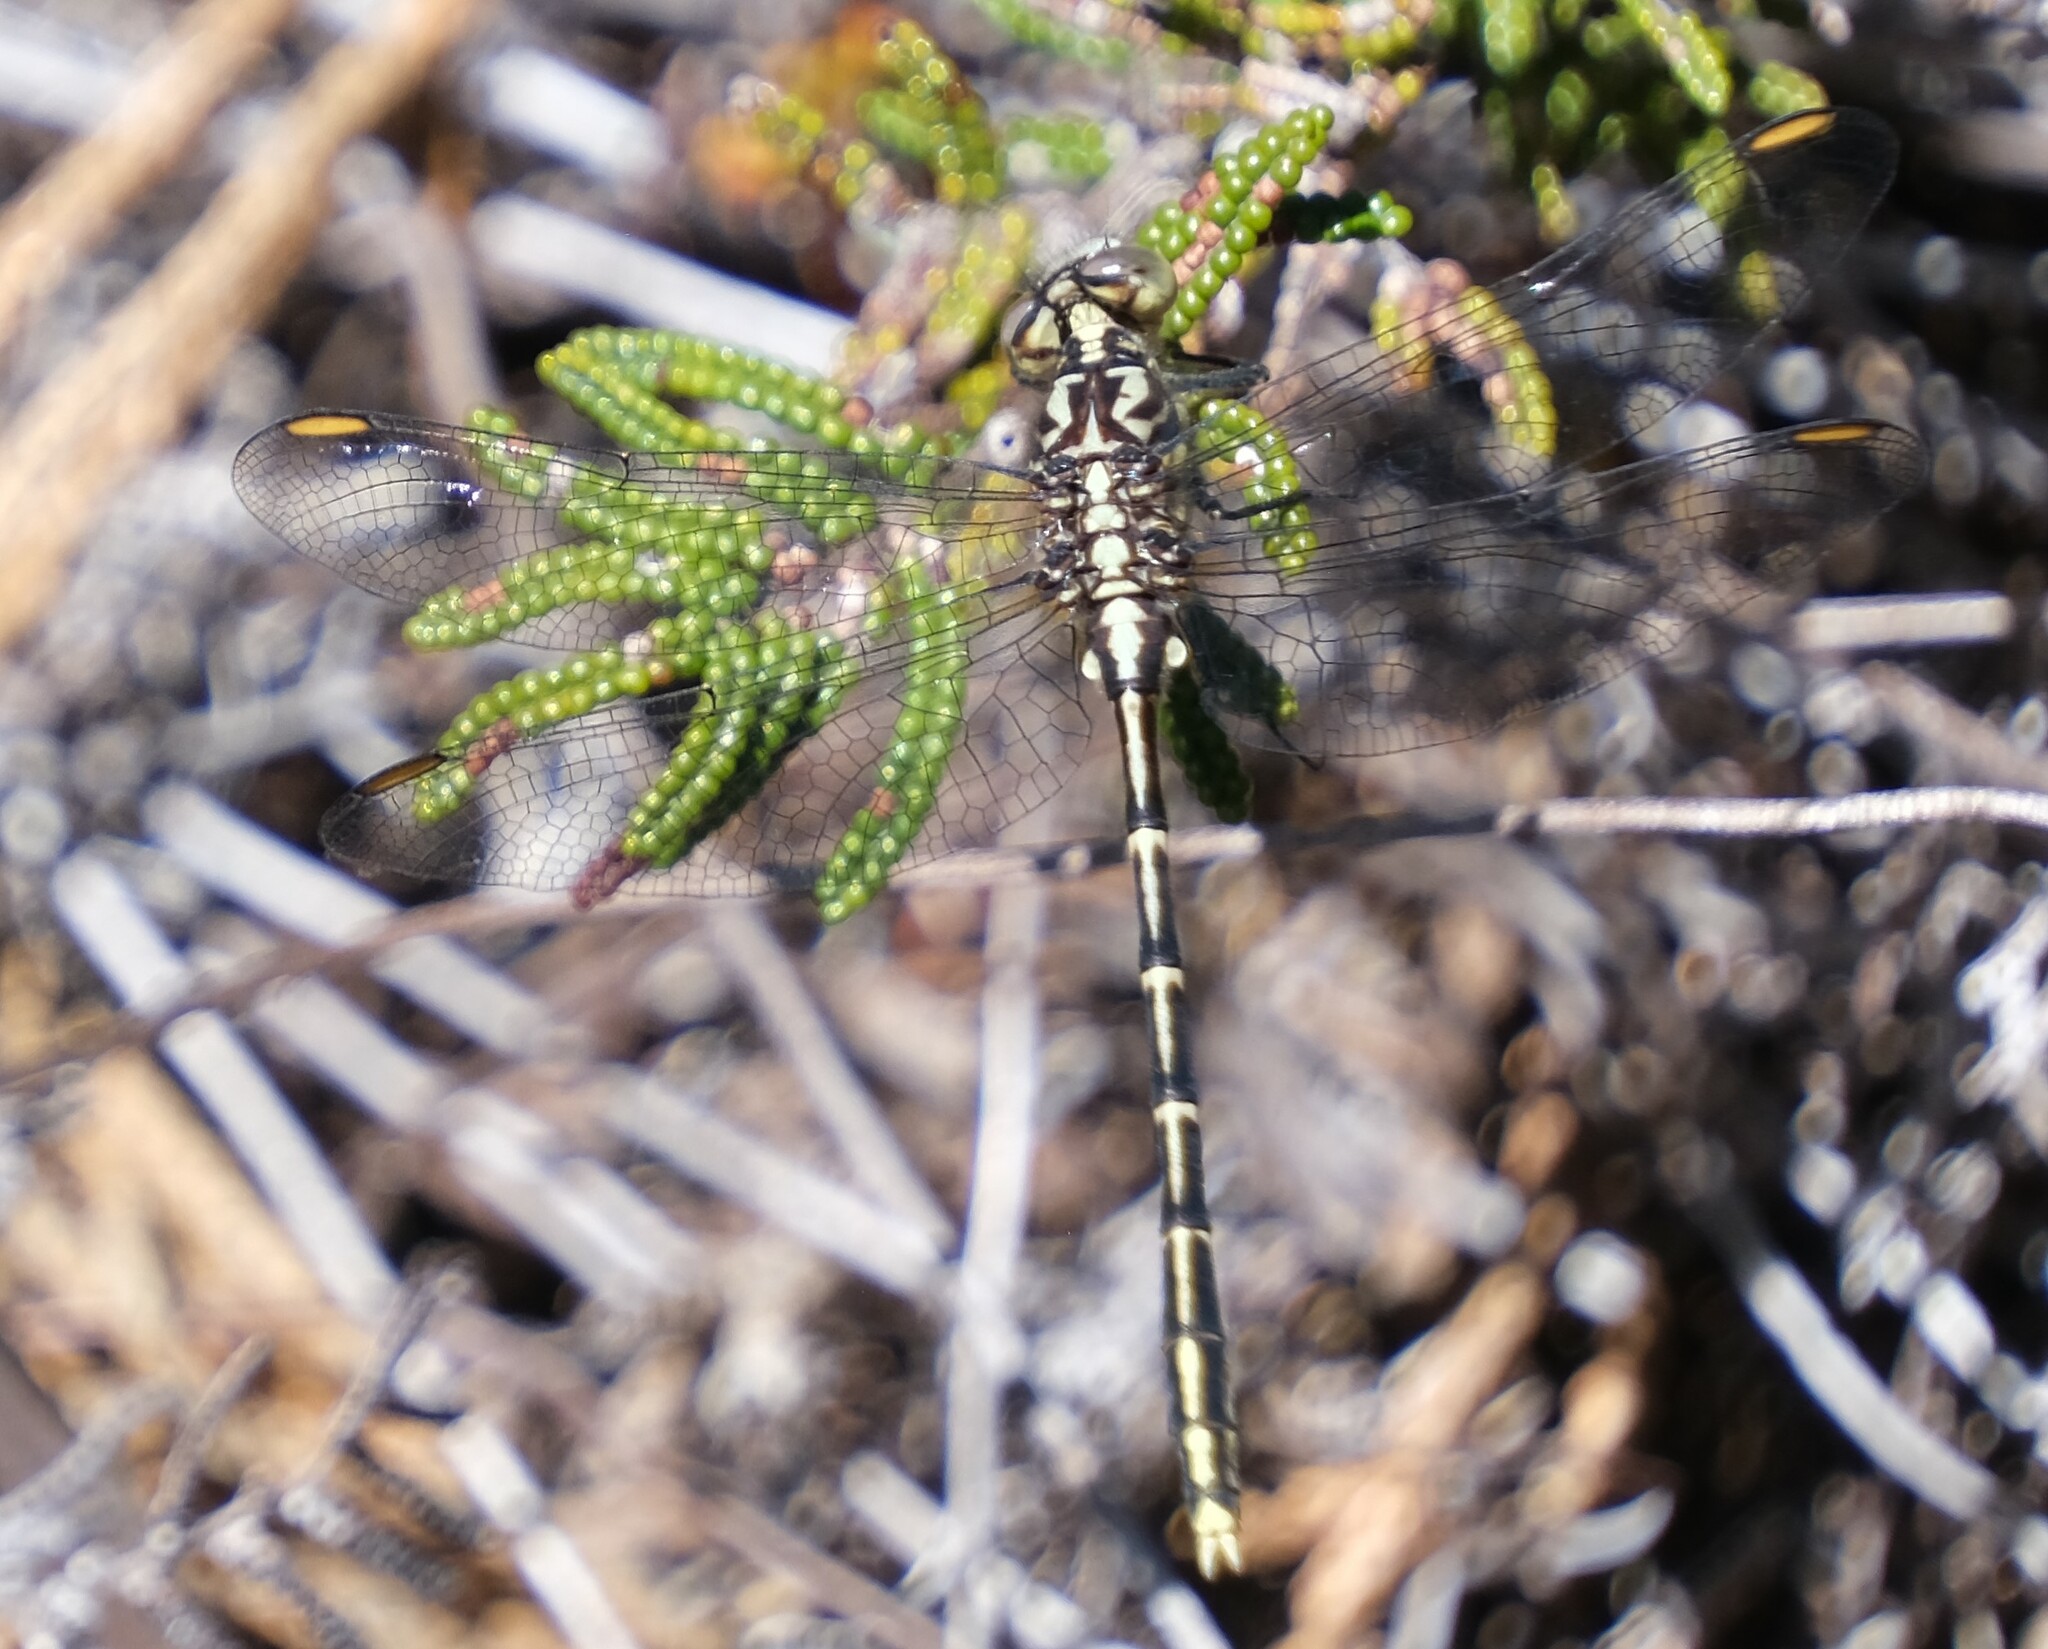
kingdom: Animalia
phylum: Arthropoda
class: Insecta
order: Odonata
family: Gomphidae
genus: Austrogomphus
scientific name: Austrogomphus guerini
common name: Yellow-striped hunter
